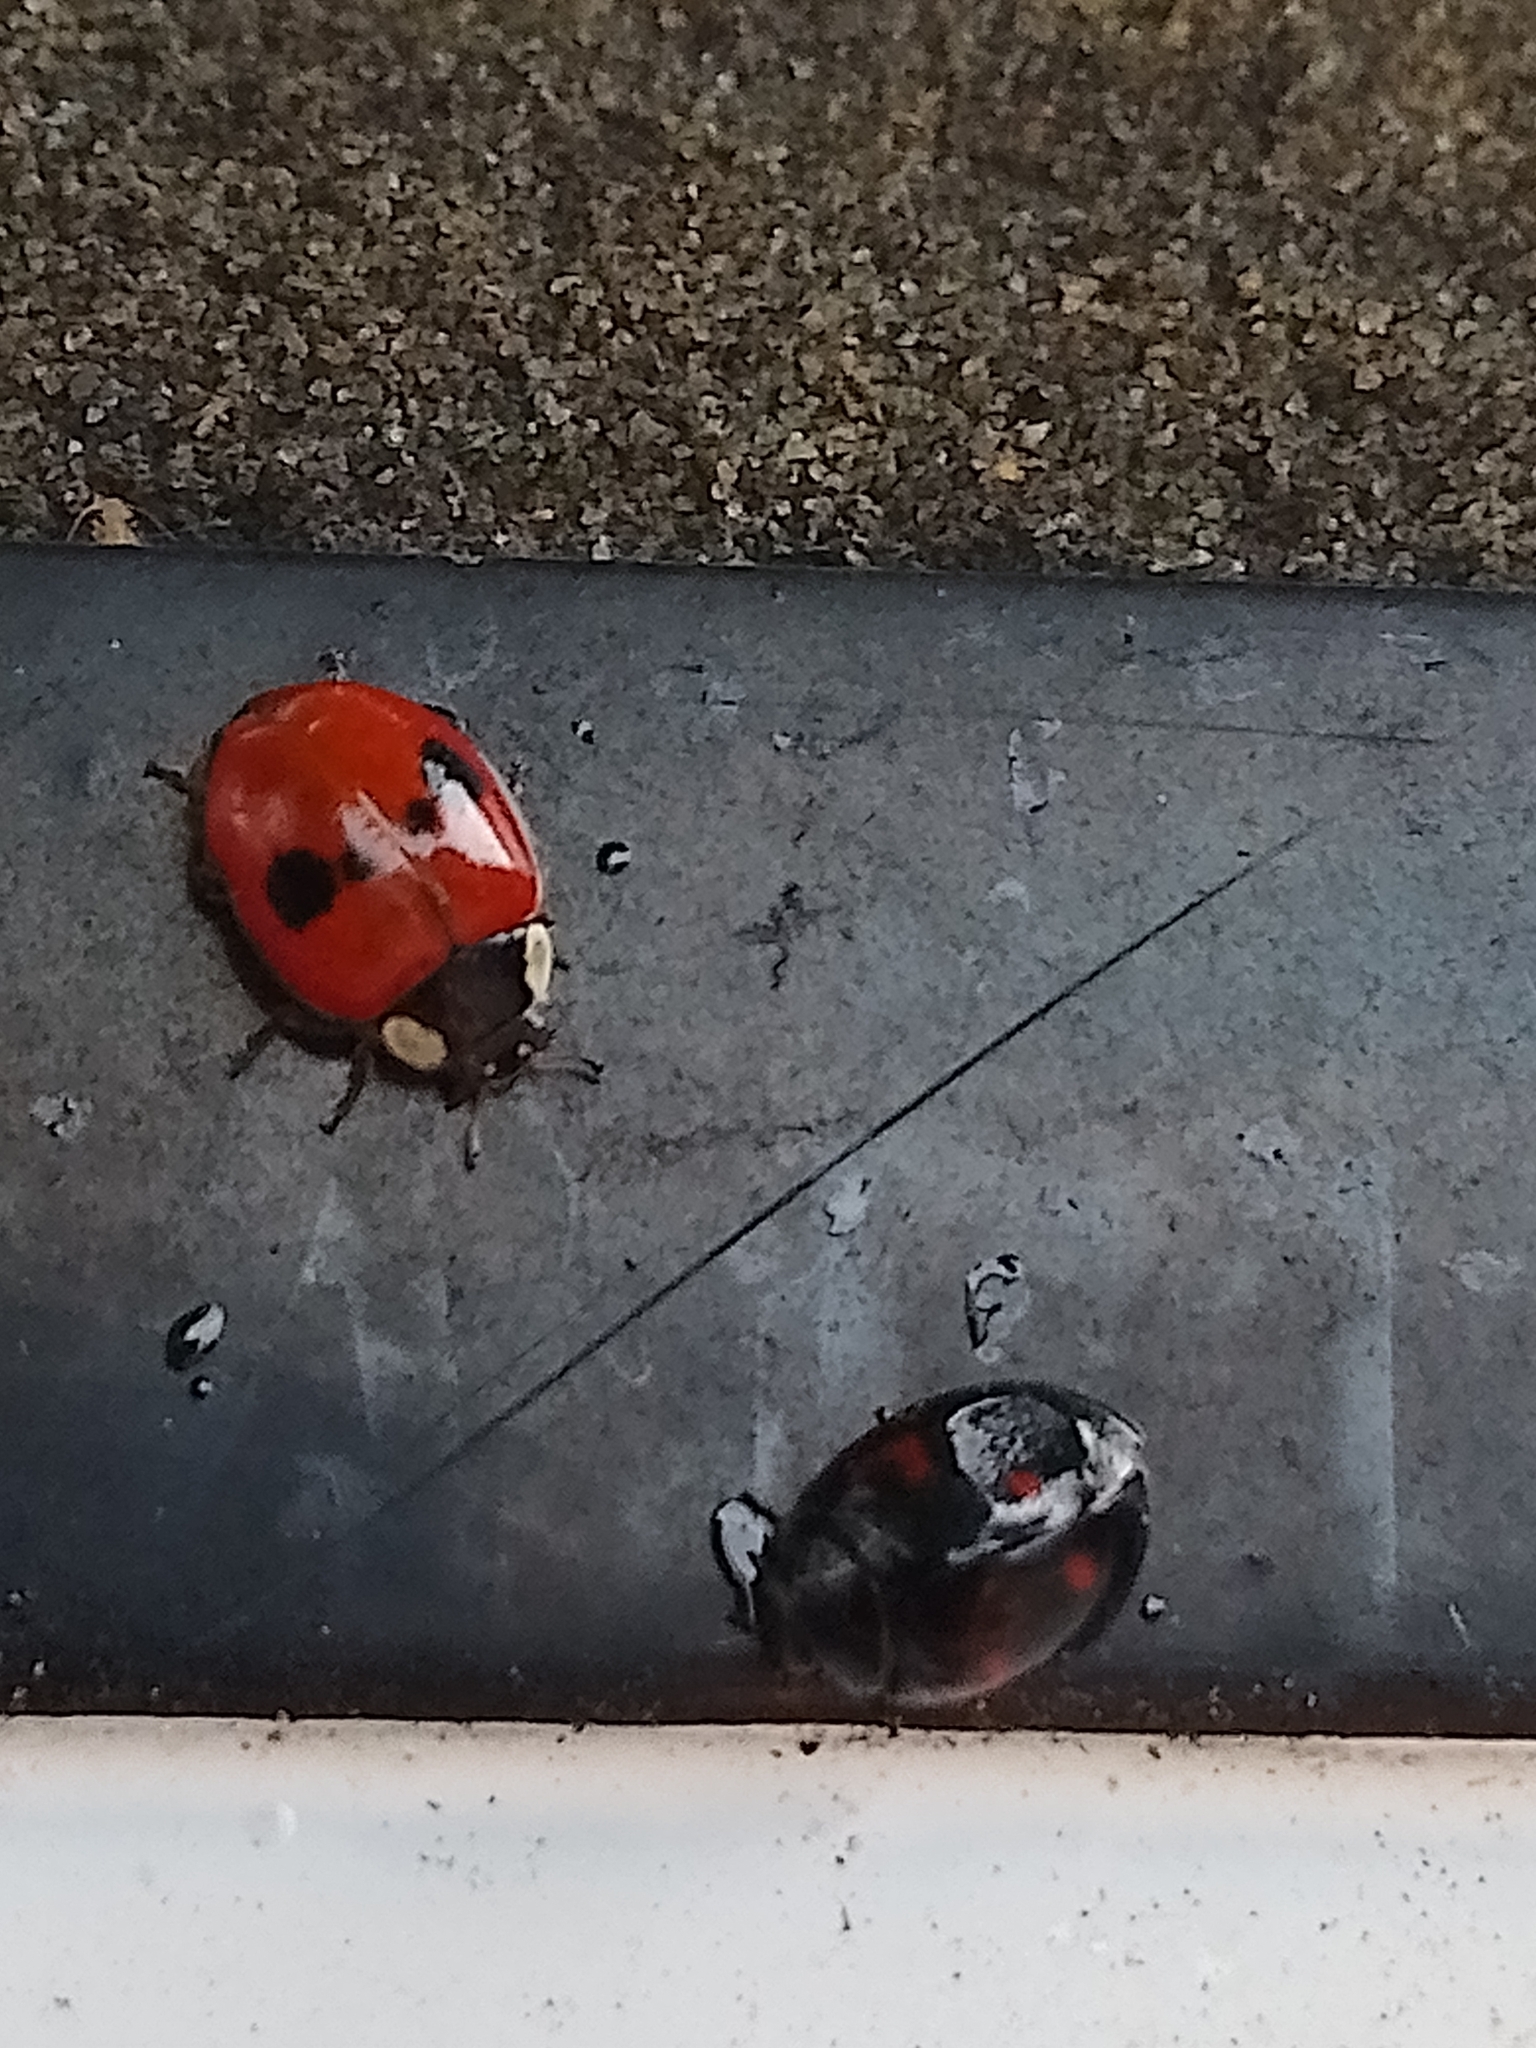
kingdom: Animalia
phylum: Arthropoda
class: Insecta
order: Coleoptera
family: Coccinellidae
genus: Adalia
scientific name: Adalia bipunctata
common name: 2-spot ladybird
